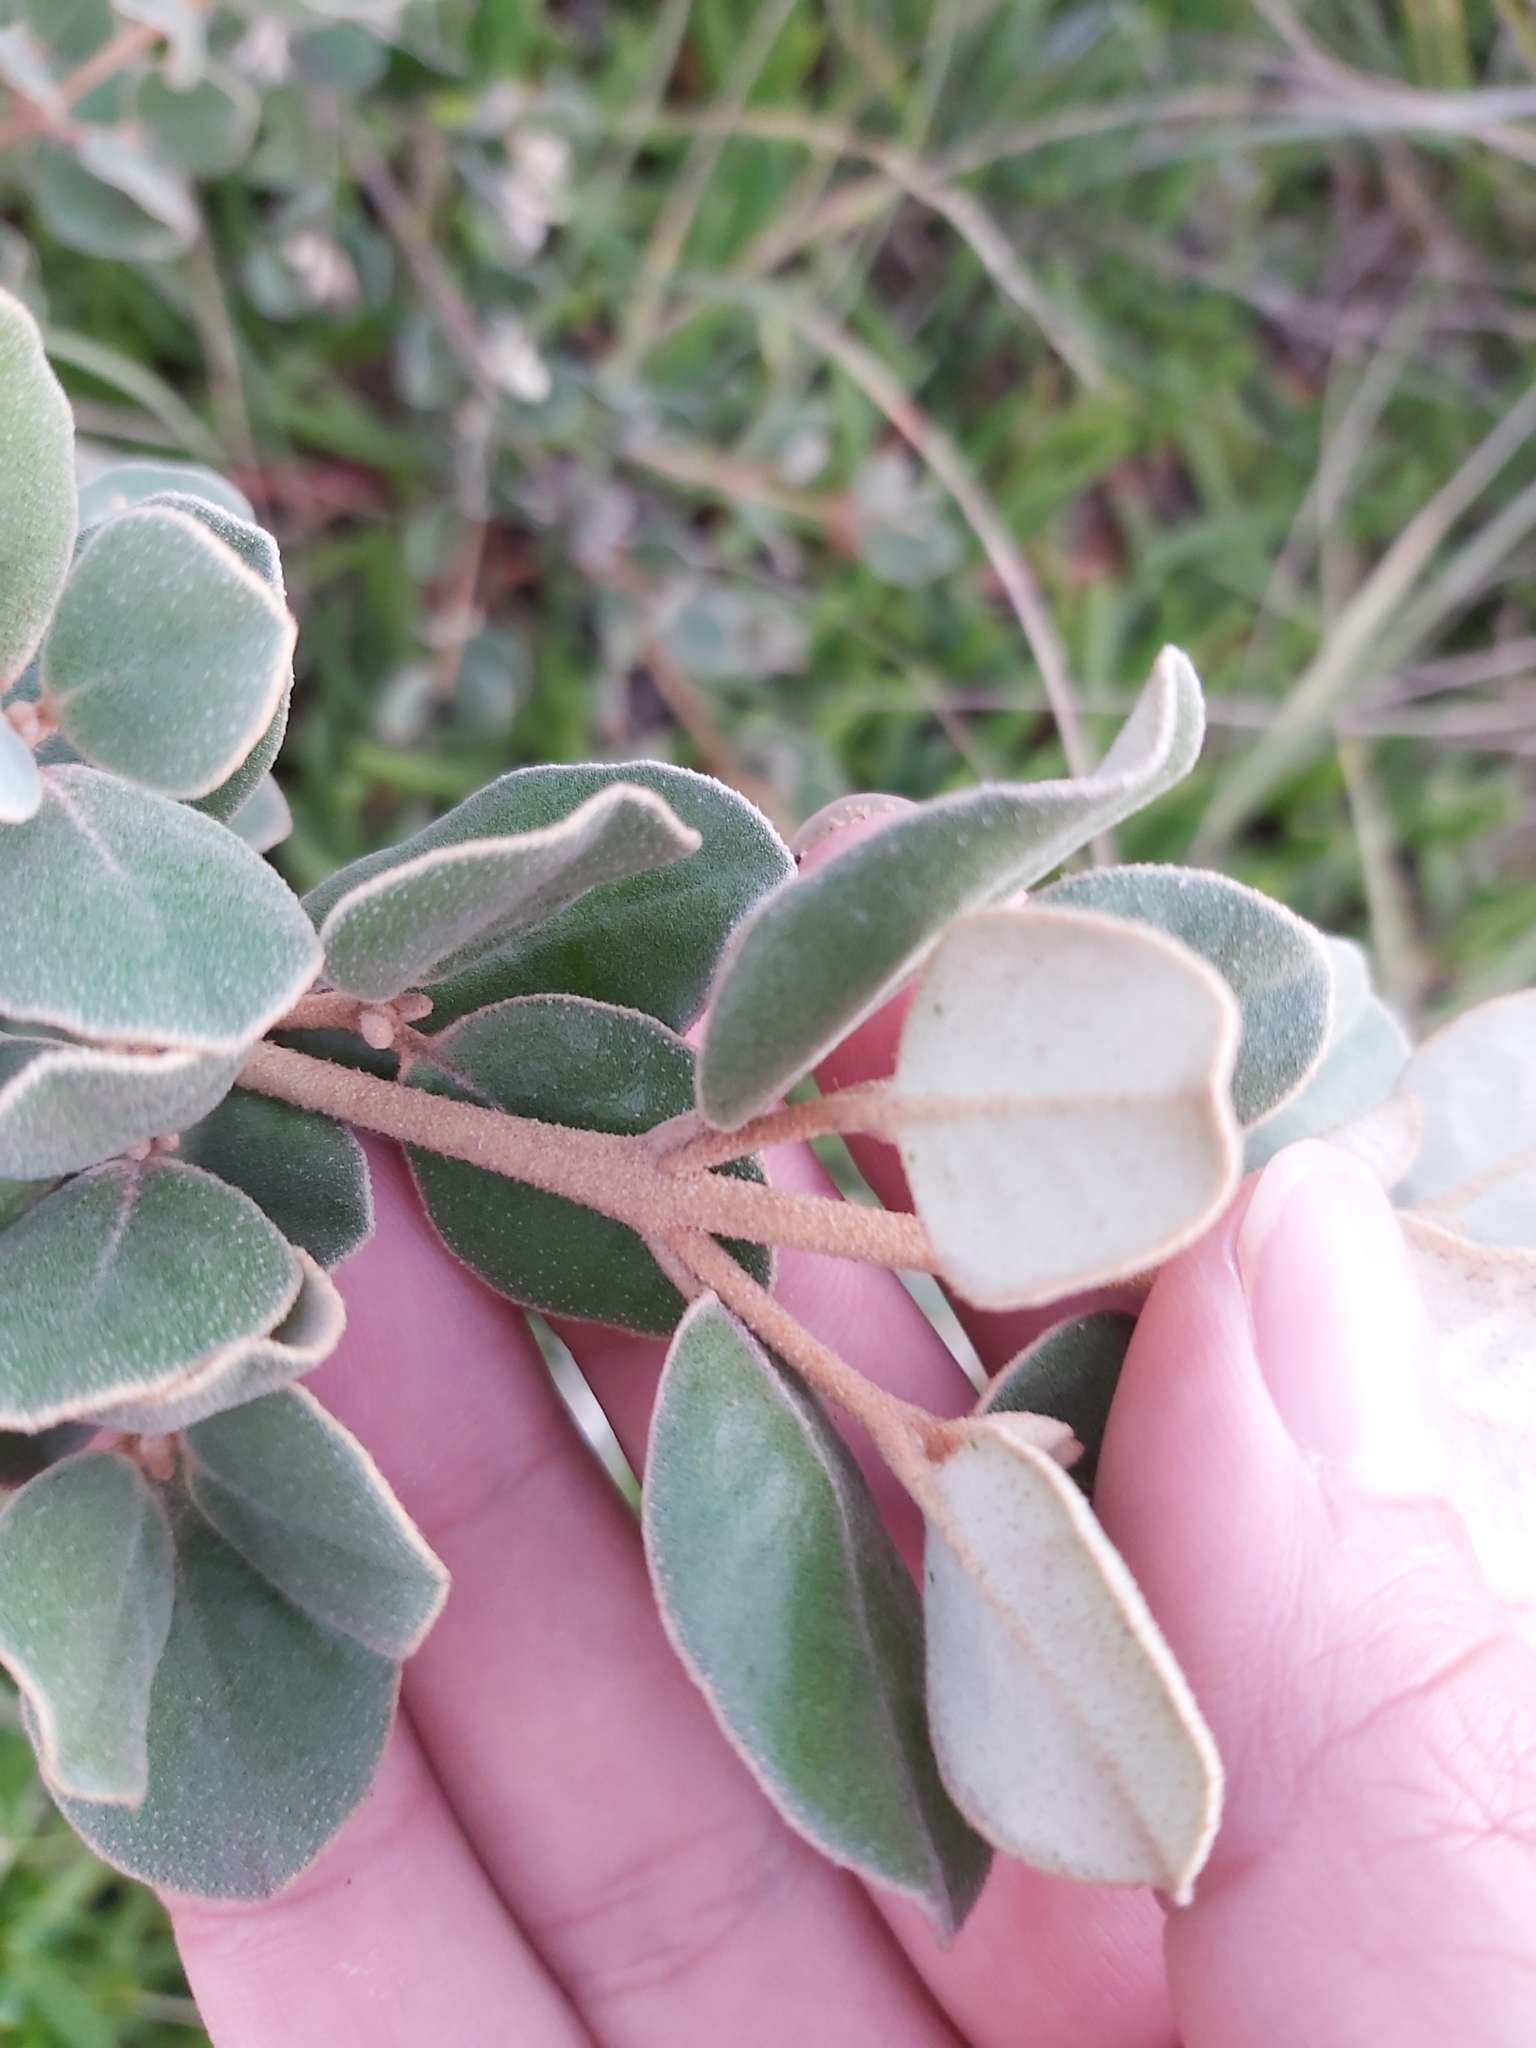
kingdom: Plantae
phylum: Tracheophyta
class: Magnoliopsida
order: Sapindales
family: Rutaceae
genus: Correa
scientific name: Correa alba
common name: White correa
